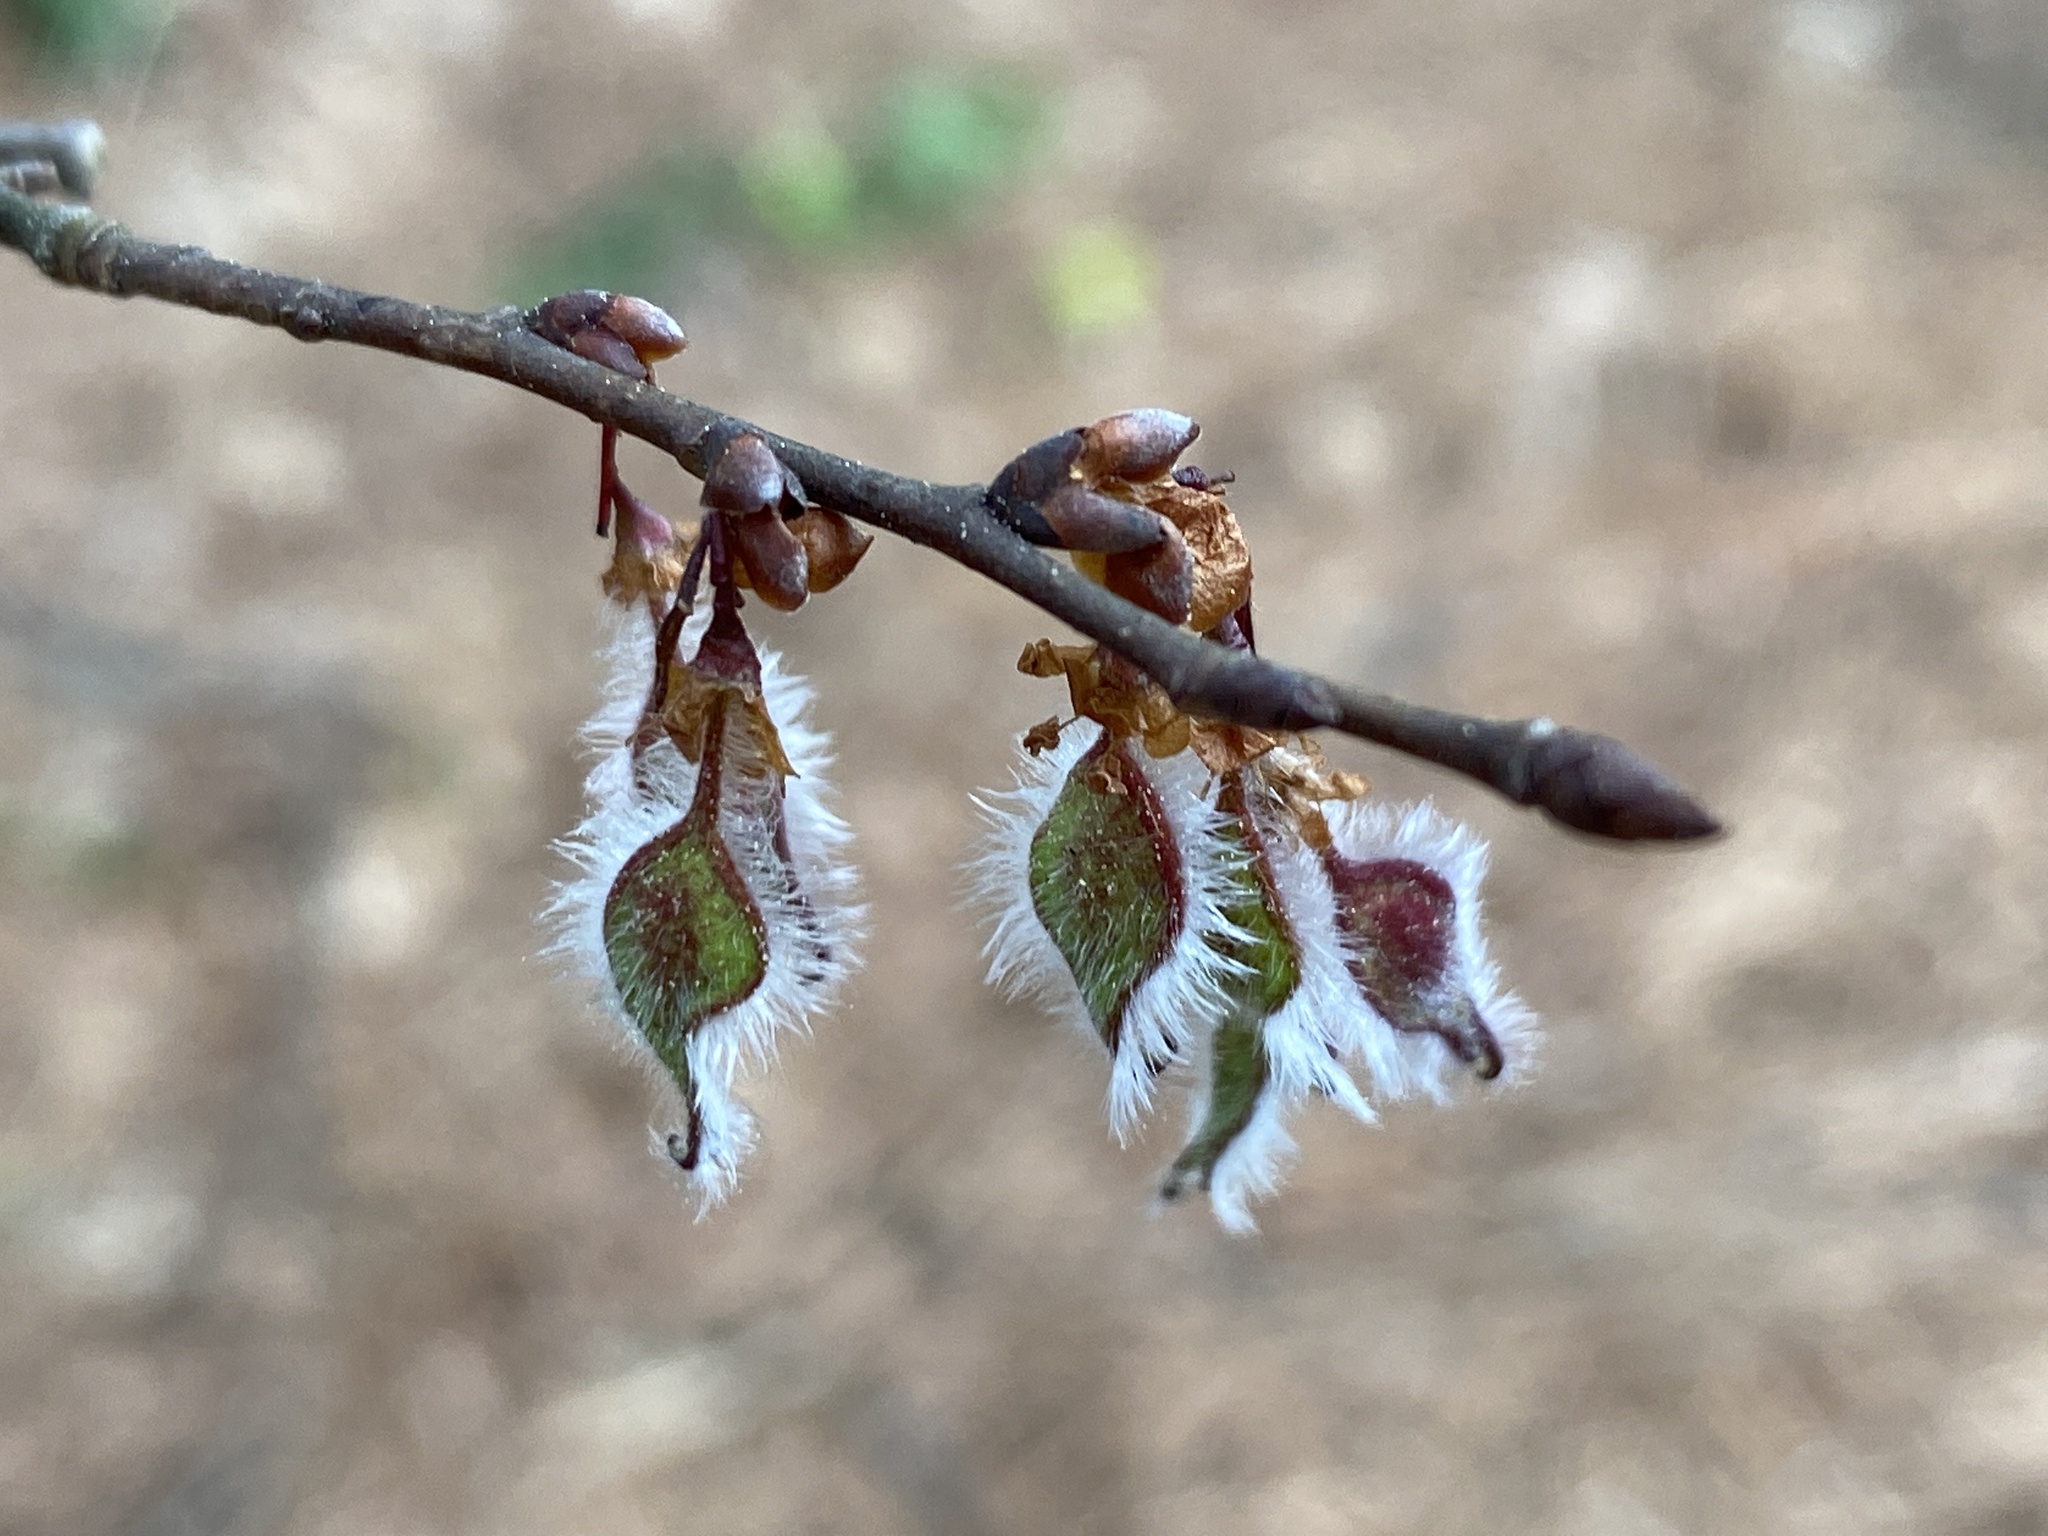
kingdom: Plantae
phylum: Tracheophyta
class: Magnoliopsida
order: Rosales
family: Ulmaceae
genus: Ulmus
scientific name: Ulmus alata
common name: Winged elm
